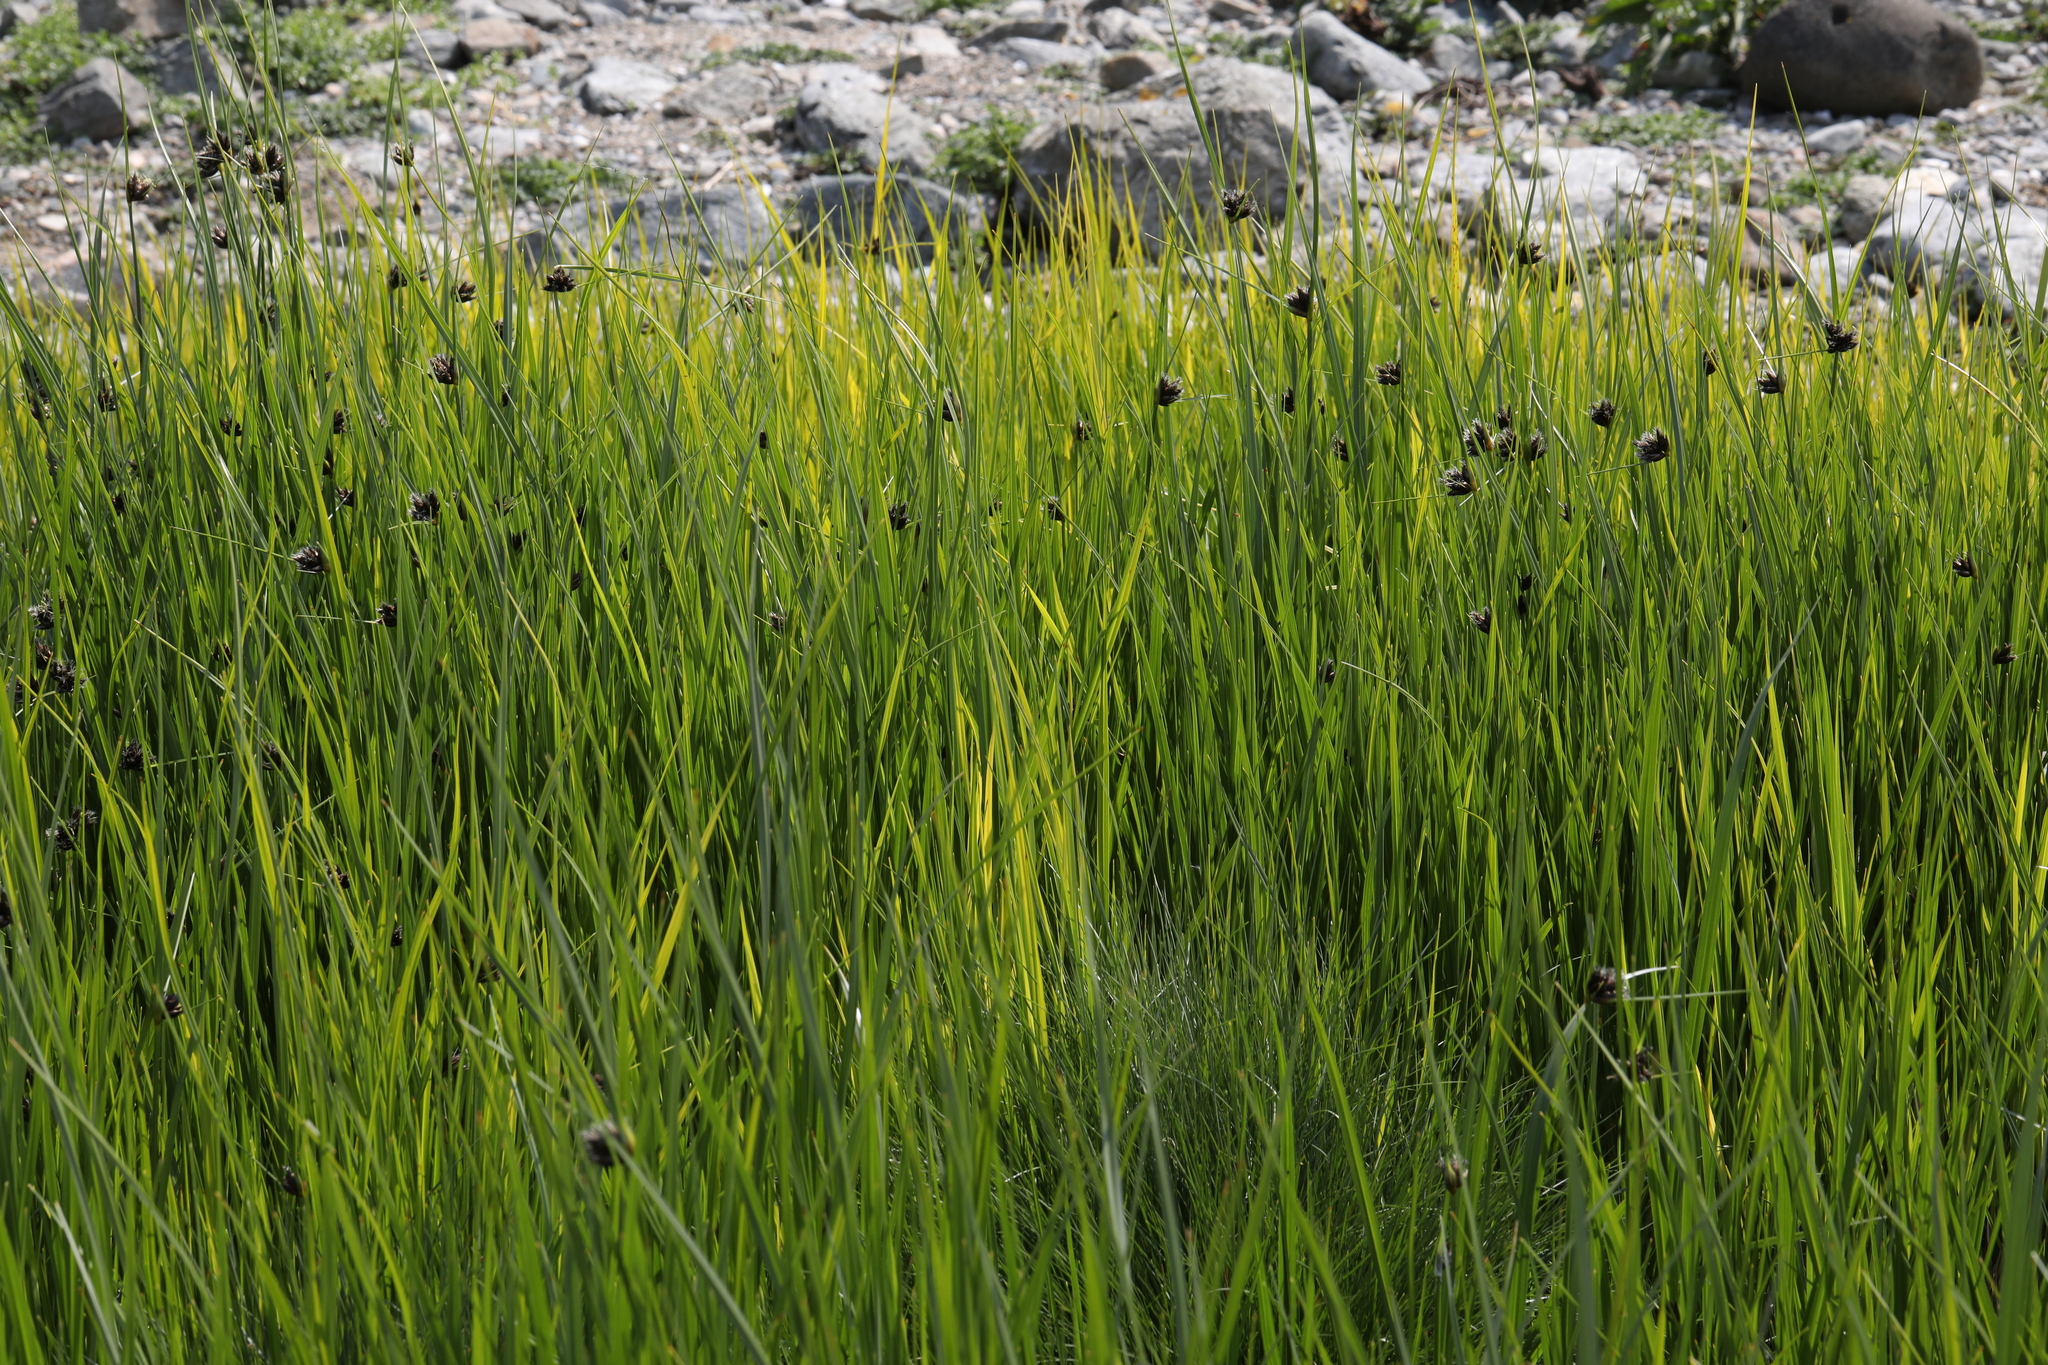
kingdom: Plantae
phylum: Tracheophyta
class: Liliopsida
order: Poales
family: Cyperaceae
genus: Bolboschoenus
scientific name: Bolboschoenus maritimus
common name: Sea club-rush
